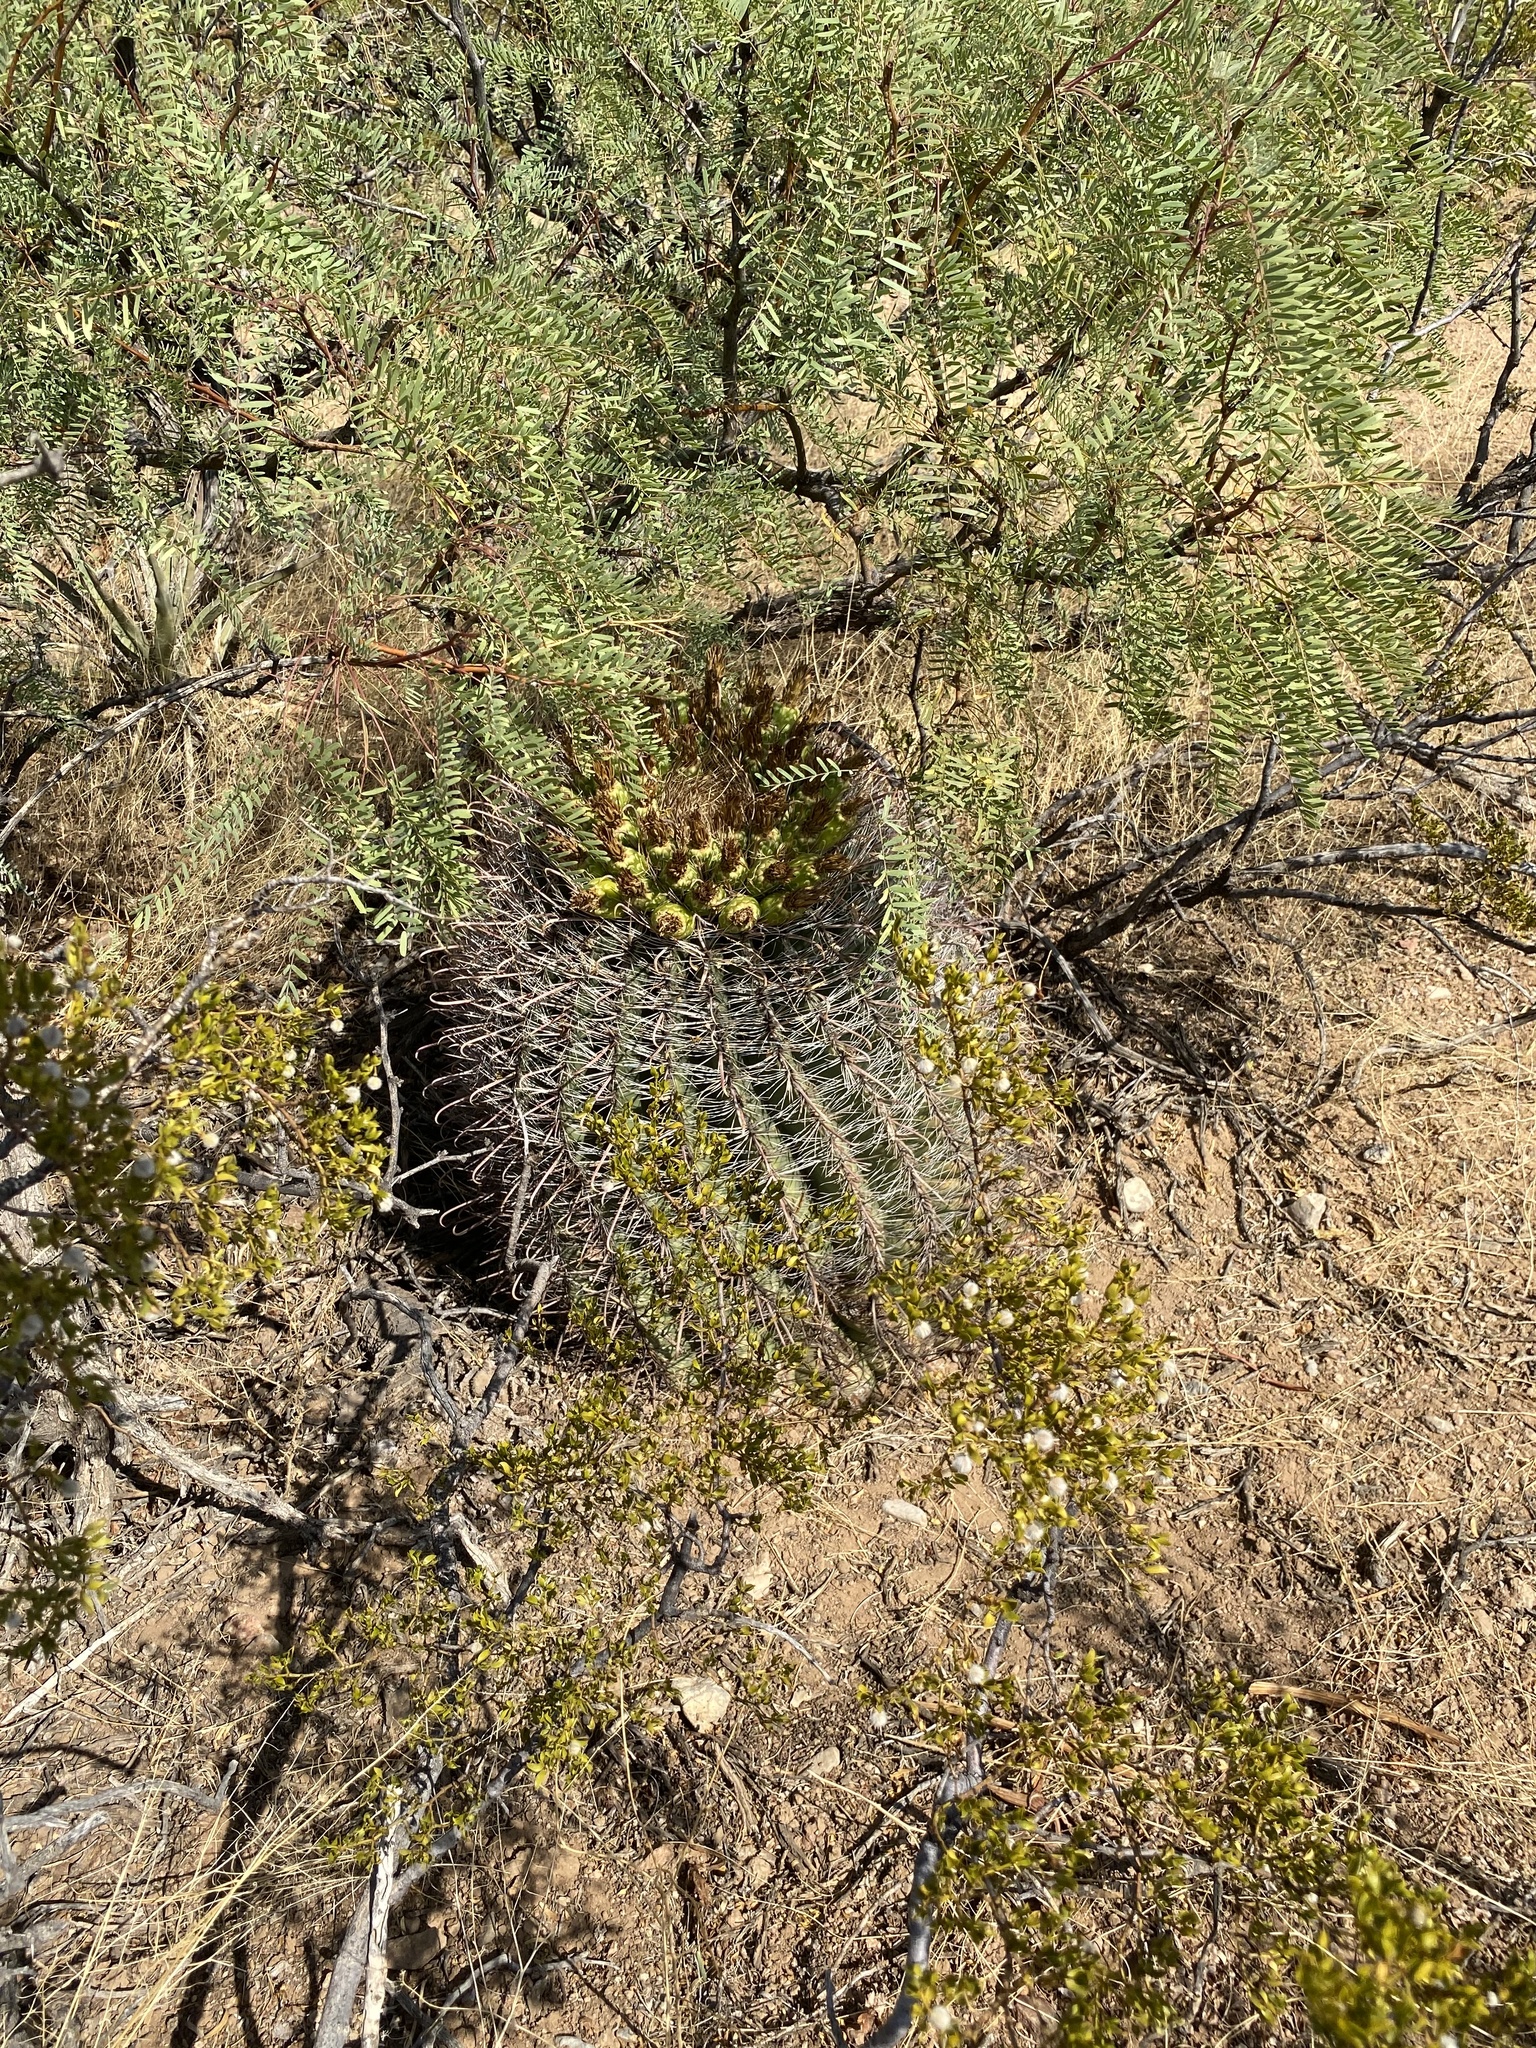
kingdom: Plantae
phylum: Tracheophyta
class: Magnoliopsida
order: Caryophyllales
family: Cactaceae
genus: Ferocactus
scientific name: Ferocactus wislizeni
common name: Candy barrel cactus
